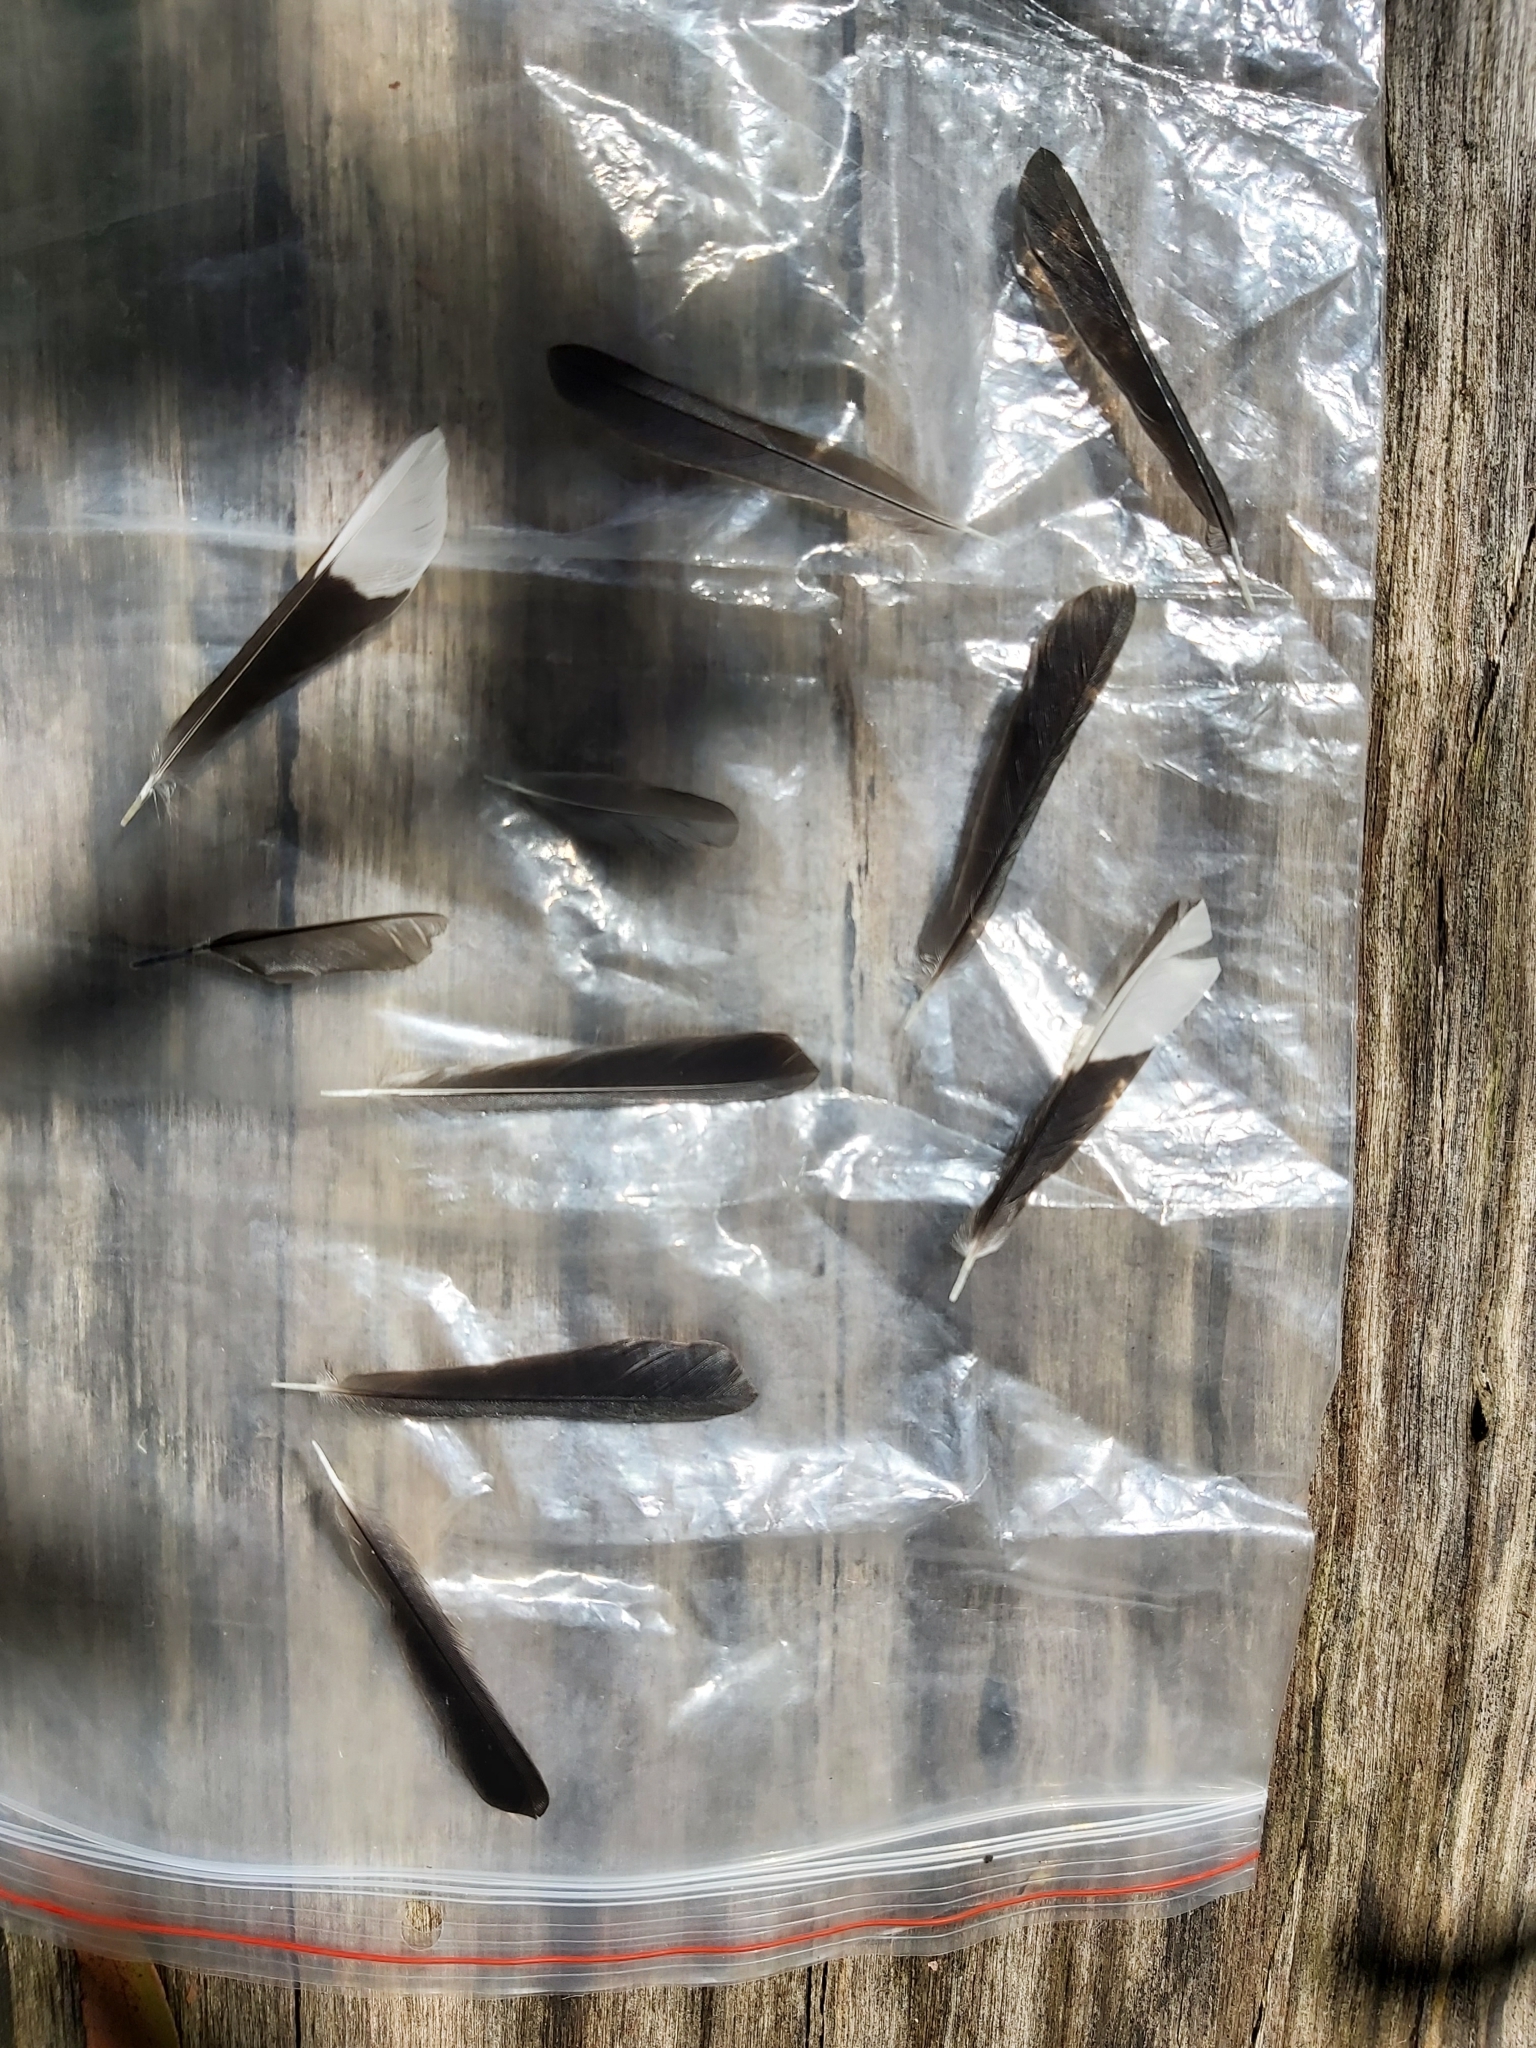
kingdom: Animalia
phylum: Chordata
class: Aves
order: Passeriformes
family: Meliphagidae
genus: Acanthorhynchus
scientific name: Acanthorhynchus tenuirostris
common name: Eastern spinebill
